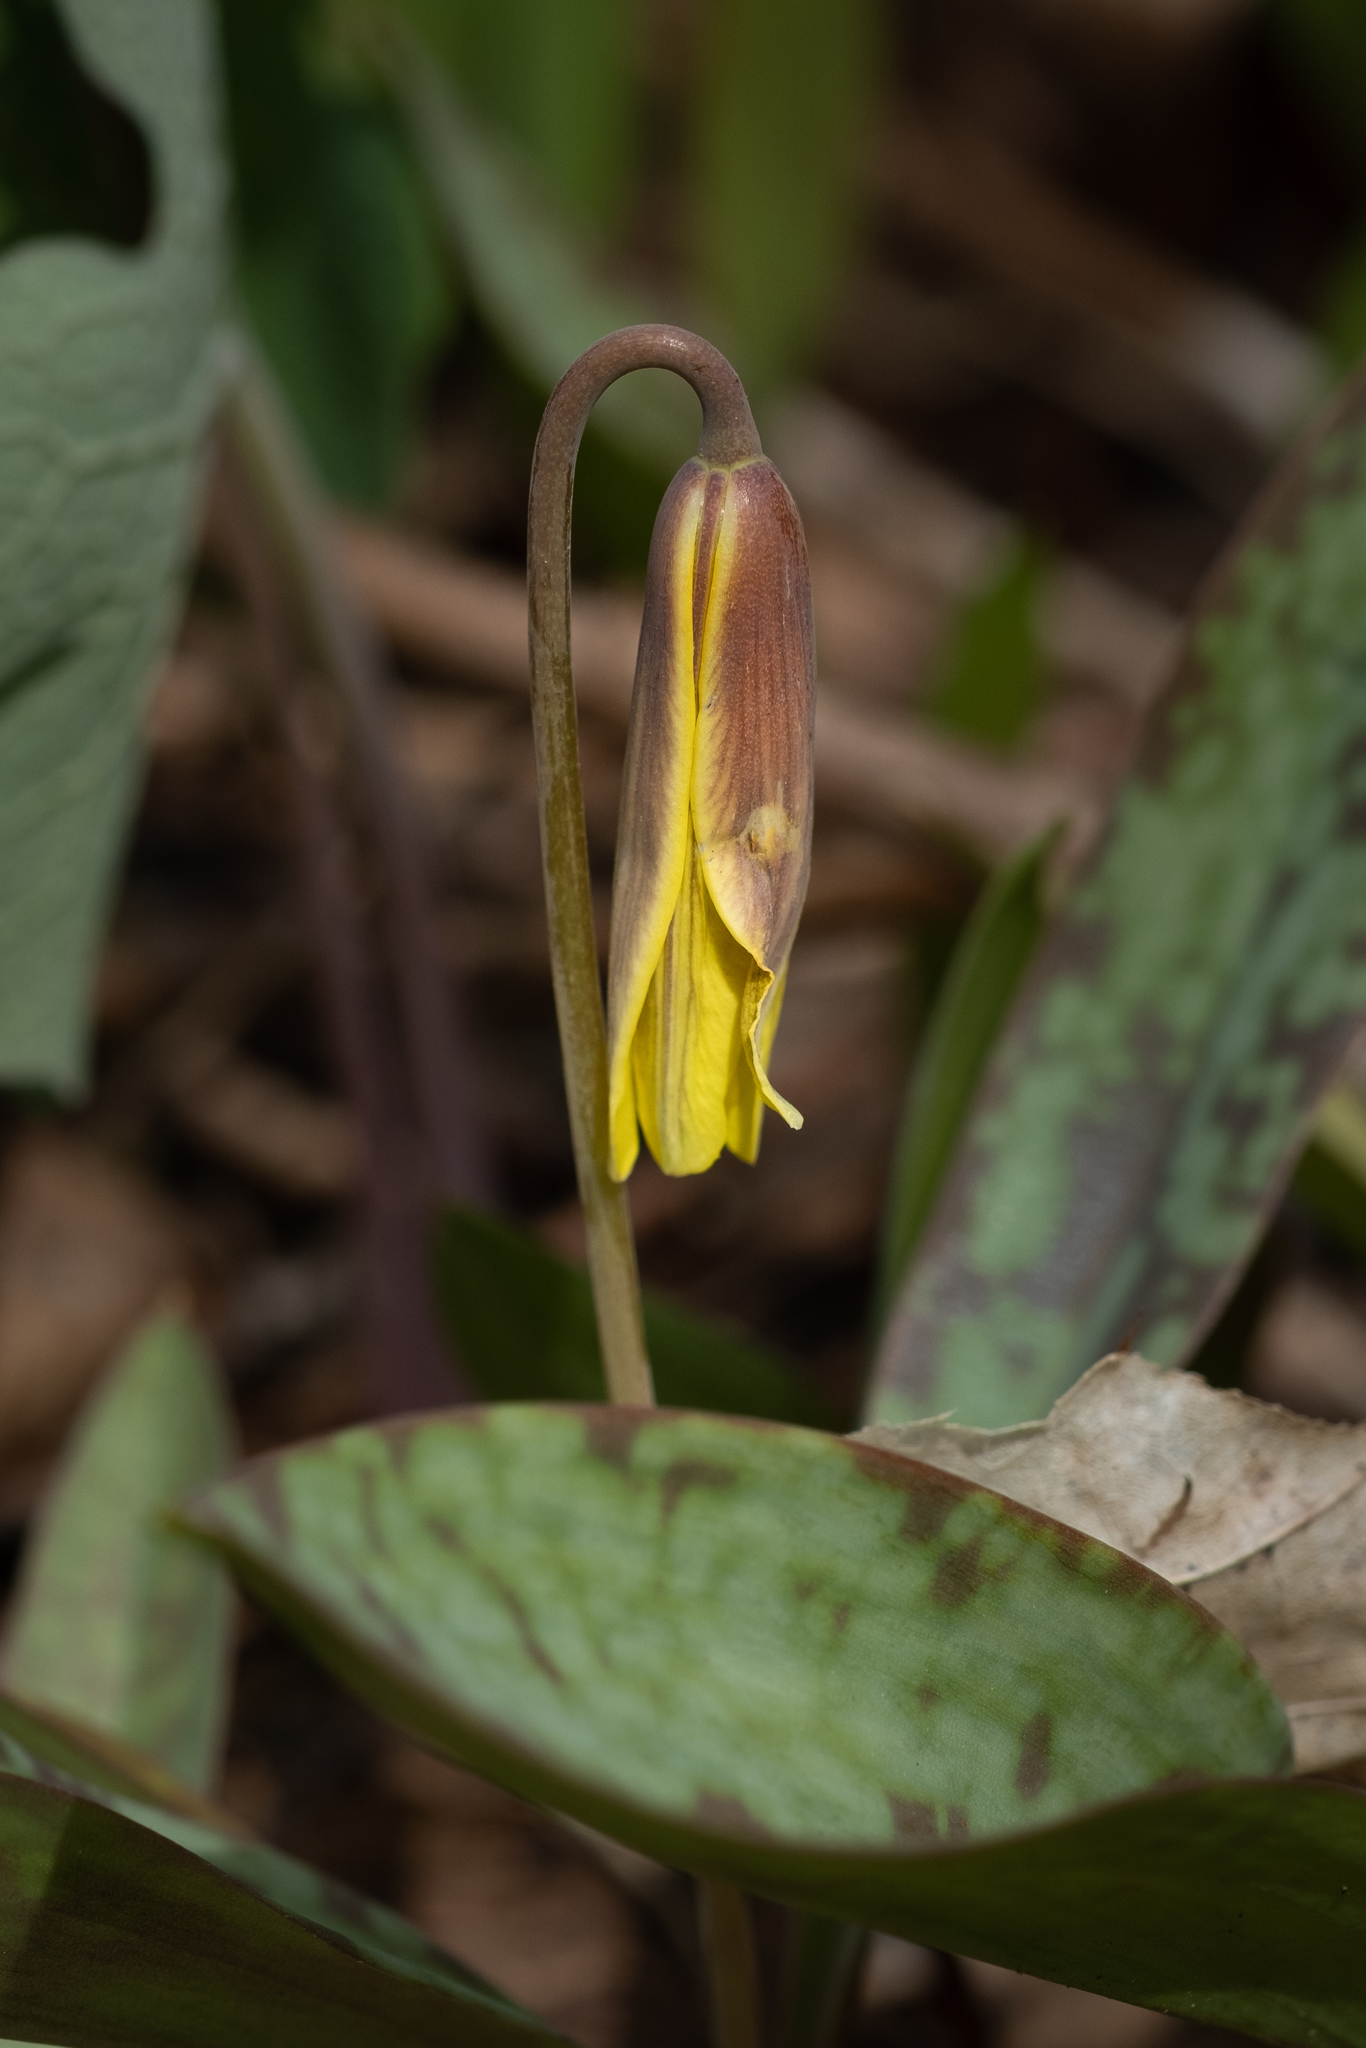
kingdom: Plantae
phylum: Tracheophyta
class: Liliopsida
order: Liliales
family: Liliaceae
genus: Erythronium
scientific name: Erythronium americanum
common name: Yellow adder's-tongue
